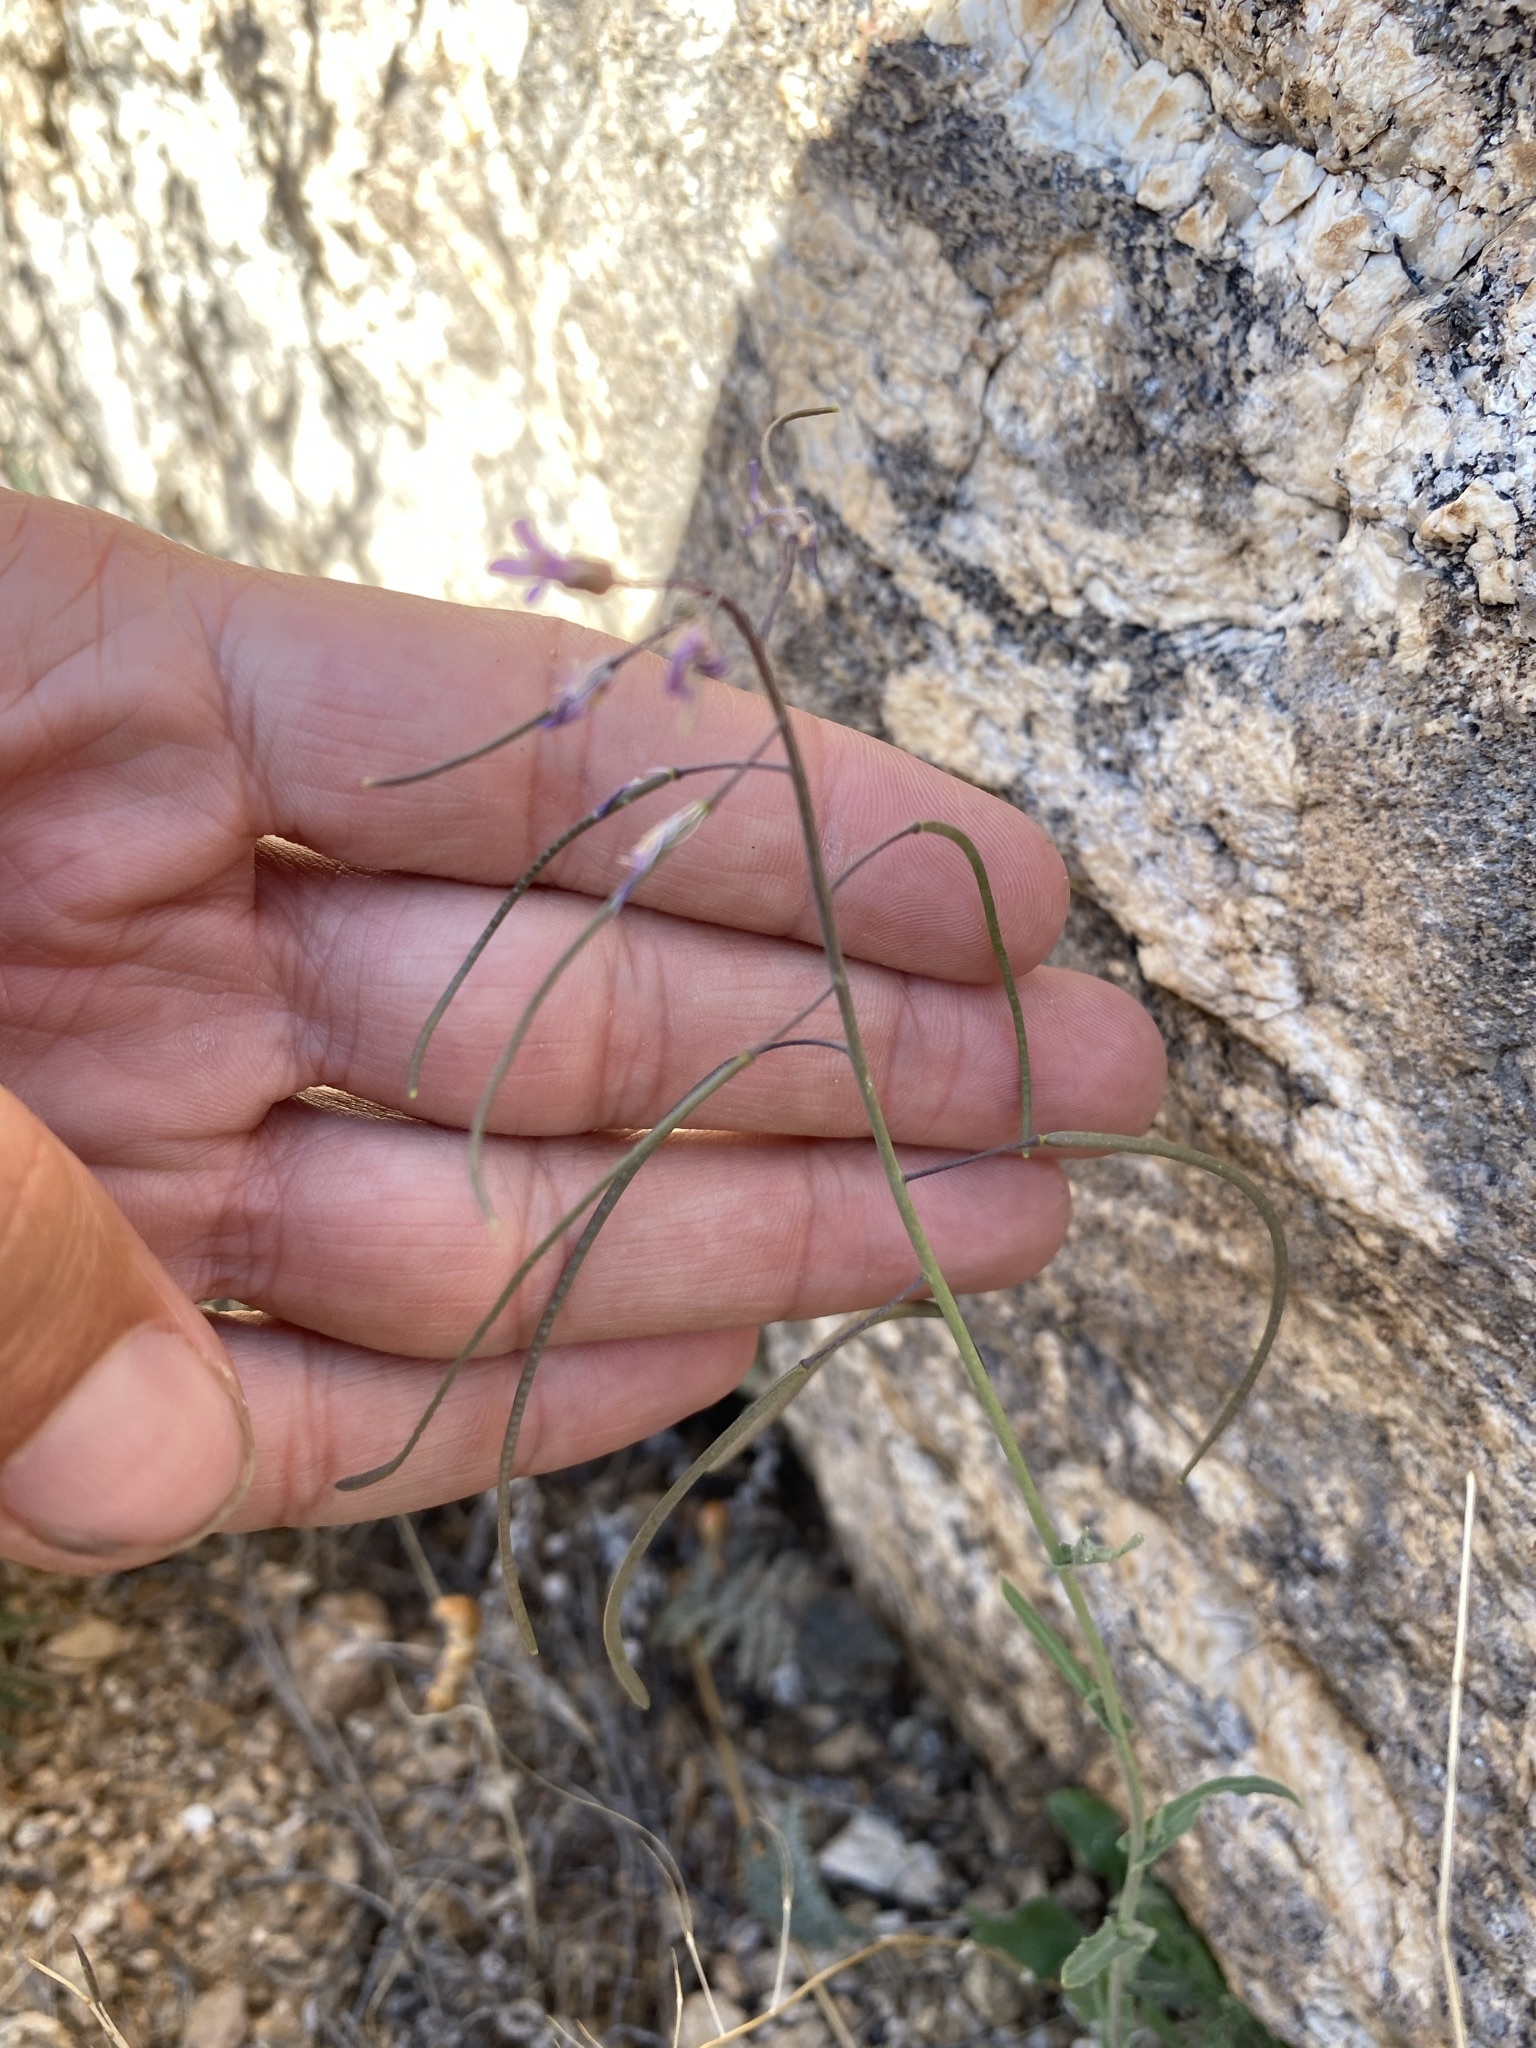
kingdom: Plantae
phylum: Tracheophyta
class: Magnoliopsida
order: Brassicales
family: Brassicaceae
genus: Boechera
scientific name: Boechera perennans
